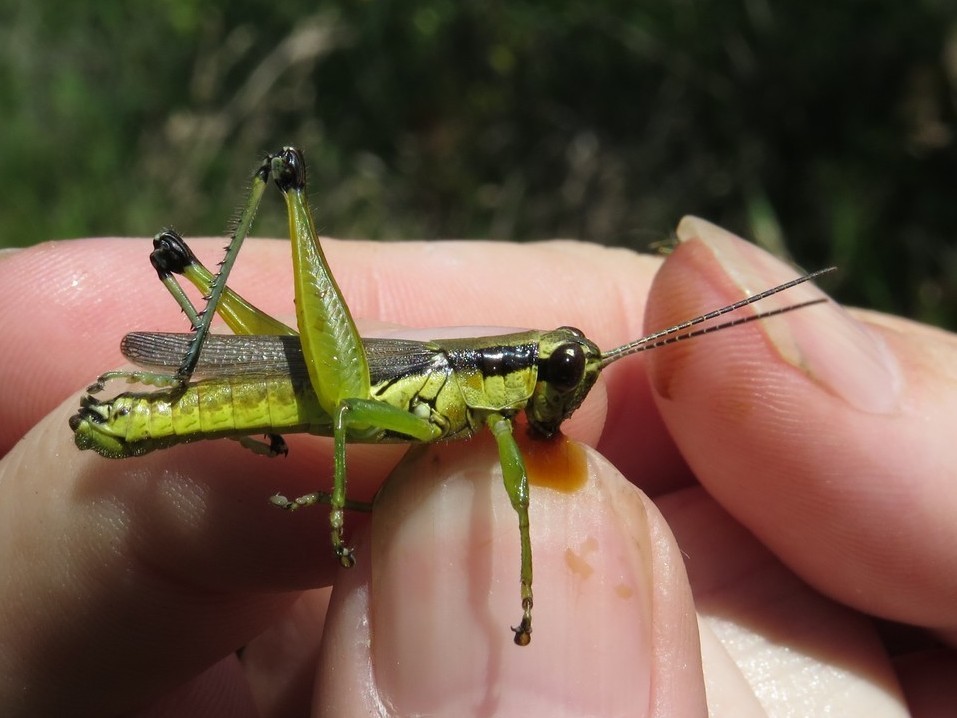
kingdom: Animalia
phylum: Arthropoda
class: Insecta
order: Orthoptera
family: Acrididae
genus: Paroxya
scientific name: Paroxya clavuligera
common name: Olive-green swamp grasshopper
